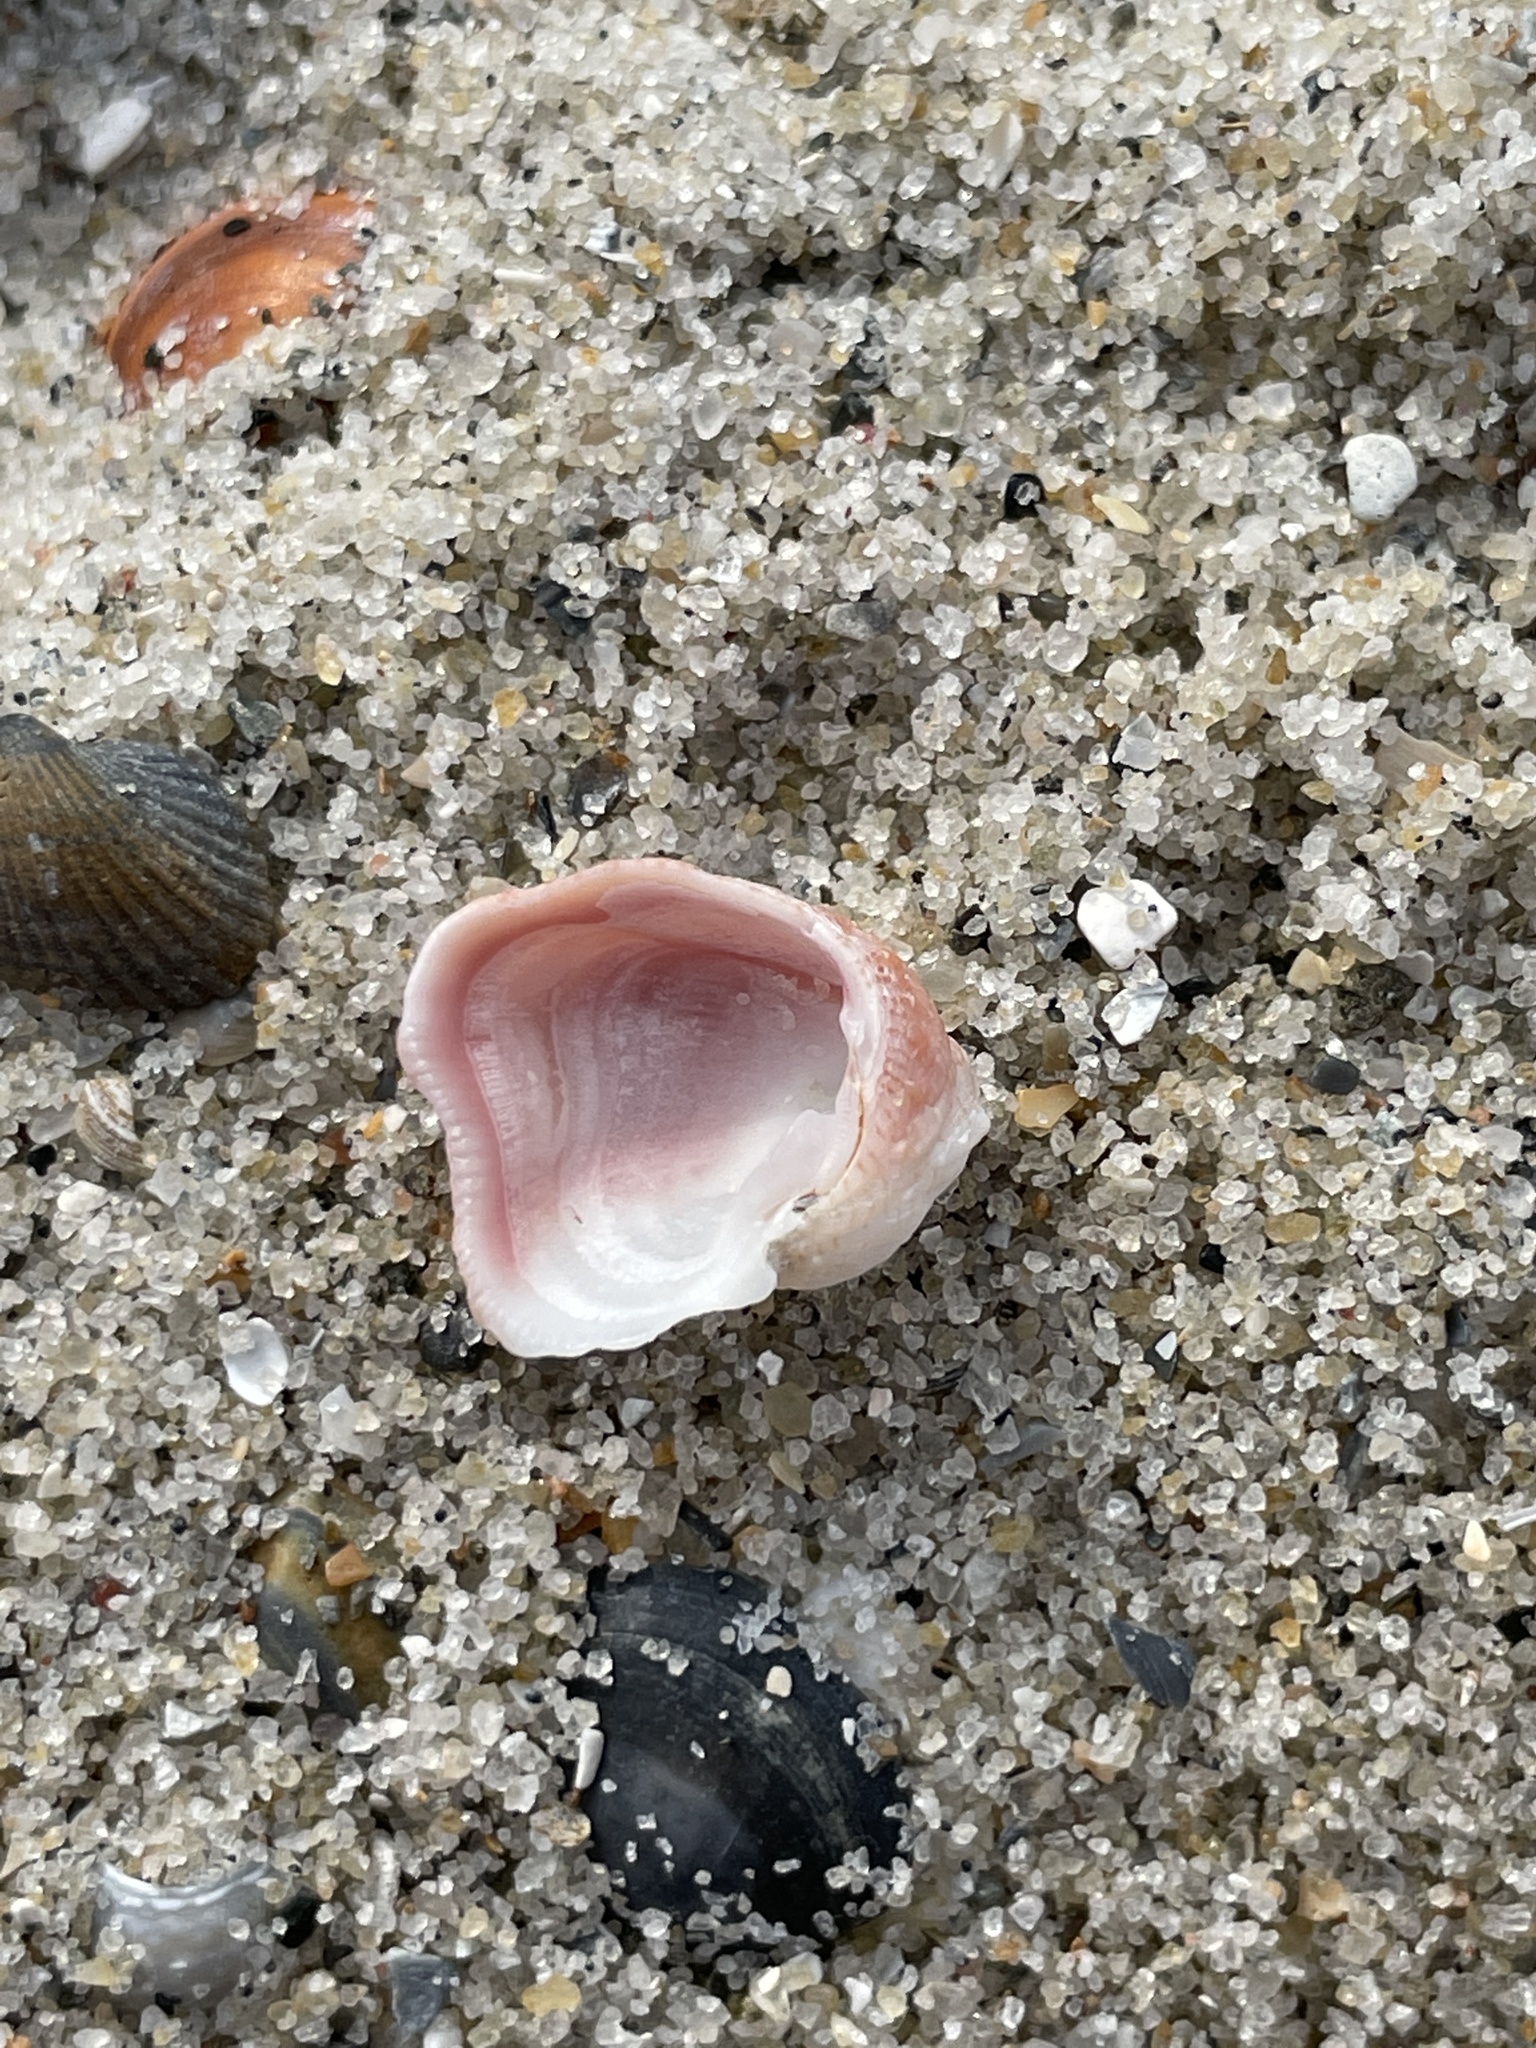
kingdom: Animalia
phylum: Mollusca
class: Bivalvia
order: Venerida
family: Chamidae
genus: Chama
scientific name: Chama congregata
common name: Corrugate jewelbox
